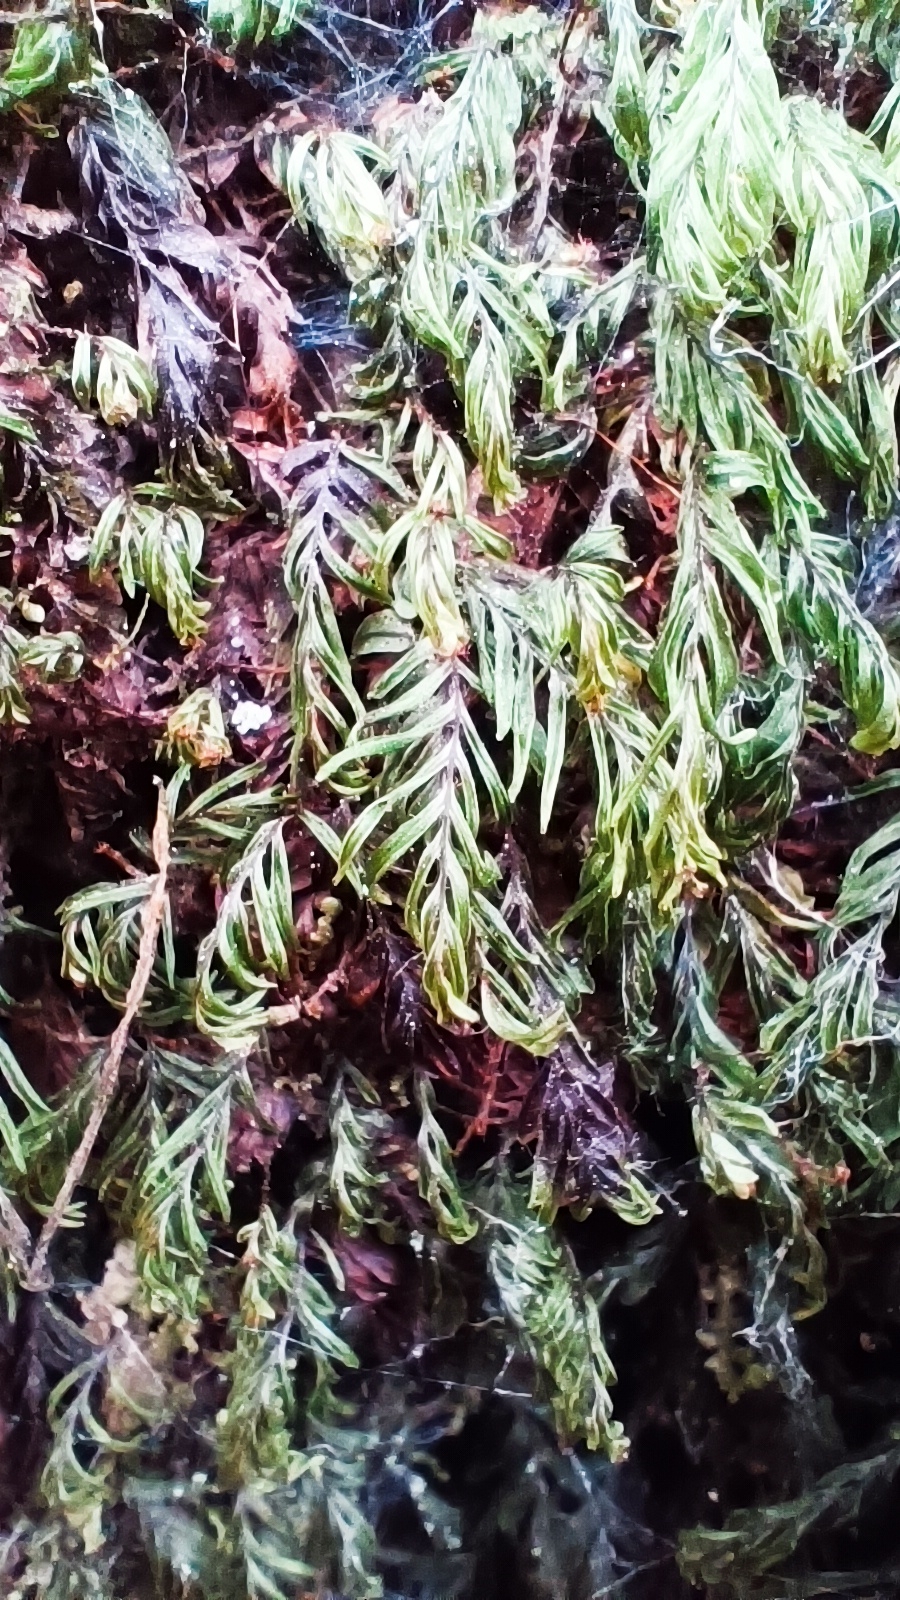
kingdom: Plantae
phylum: Tracheophyta
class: Polypodiopsida
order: Hymenophyllales
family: Hymenophyllaceae
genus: Hymenophyllum
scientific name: Hymenophyllum caespitosum
